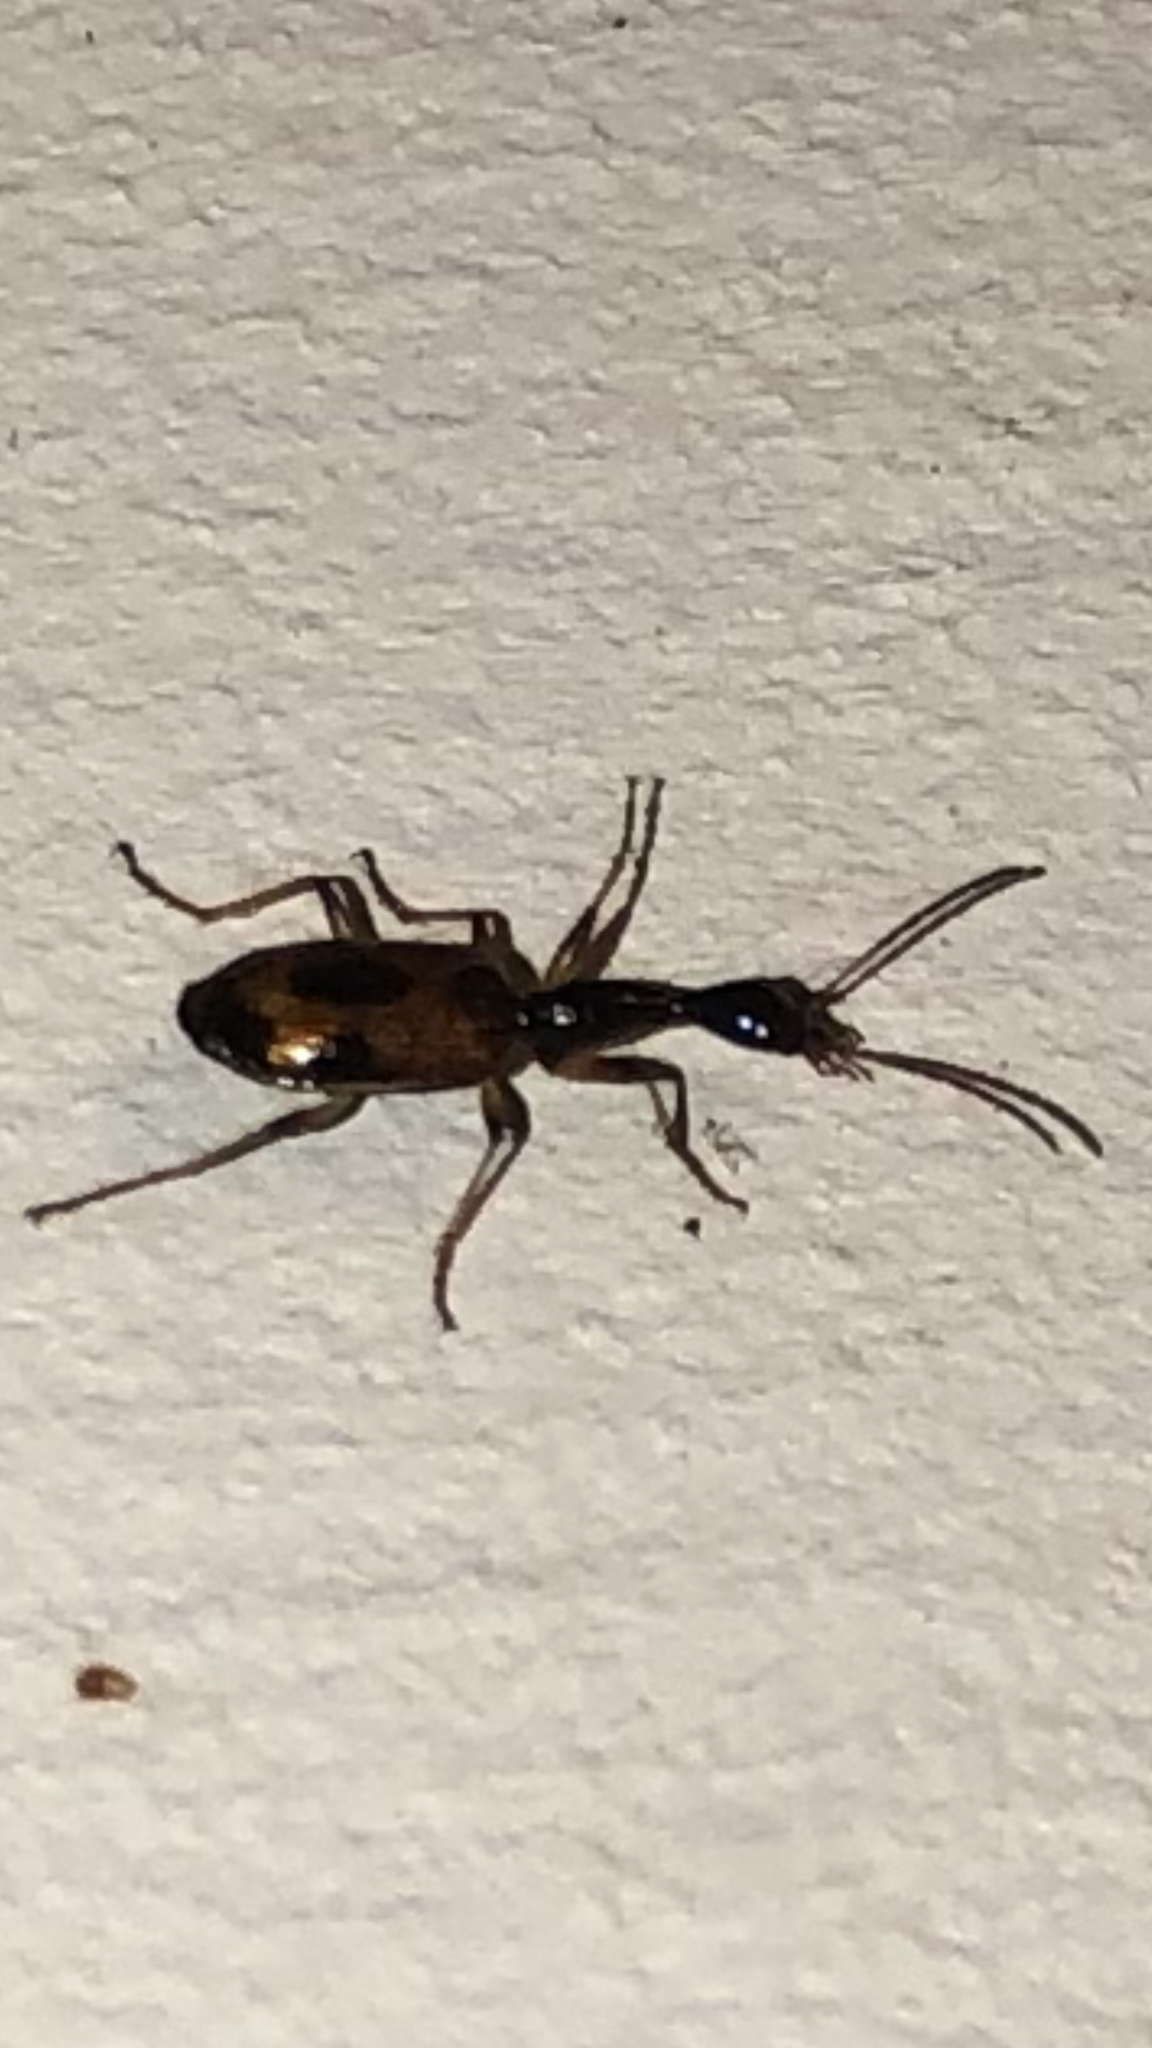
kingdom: Animalia
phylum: Arthropoda
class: Insecta
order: Coleoptera
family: Carabidae
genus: Colliuris
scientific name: Colliuris pensylvanica
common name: Long-necked ground beetle
